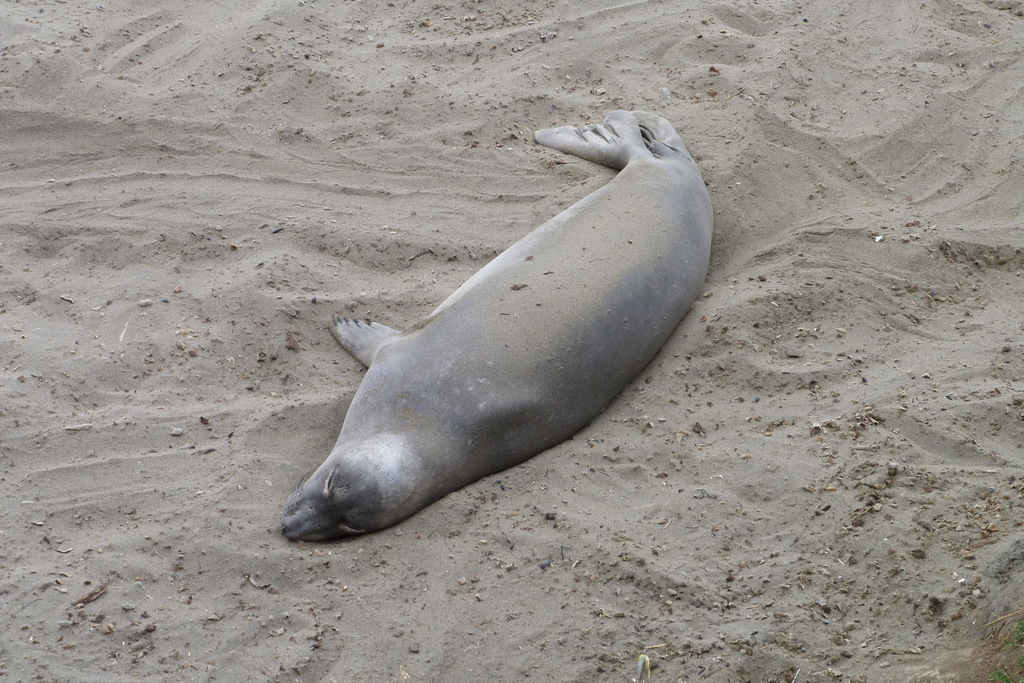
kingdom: Animalia
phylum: Chordata
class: Mammalia
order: Carnivora
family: Phocidae
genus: Mirounga
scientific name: Mirounga angustirostris
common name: Northern elephant seal
